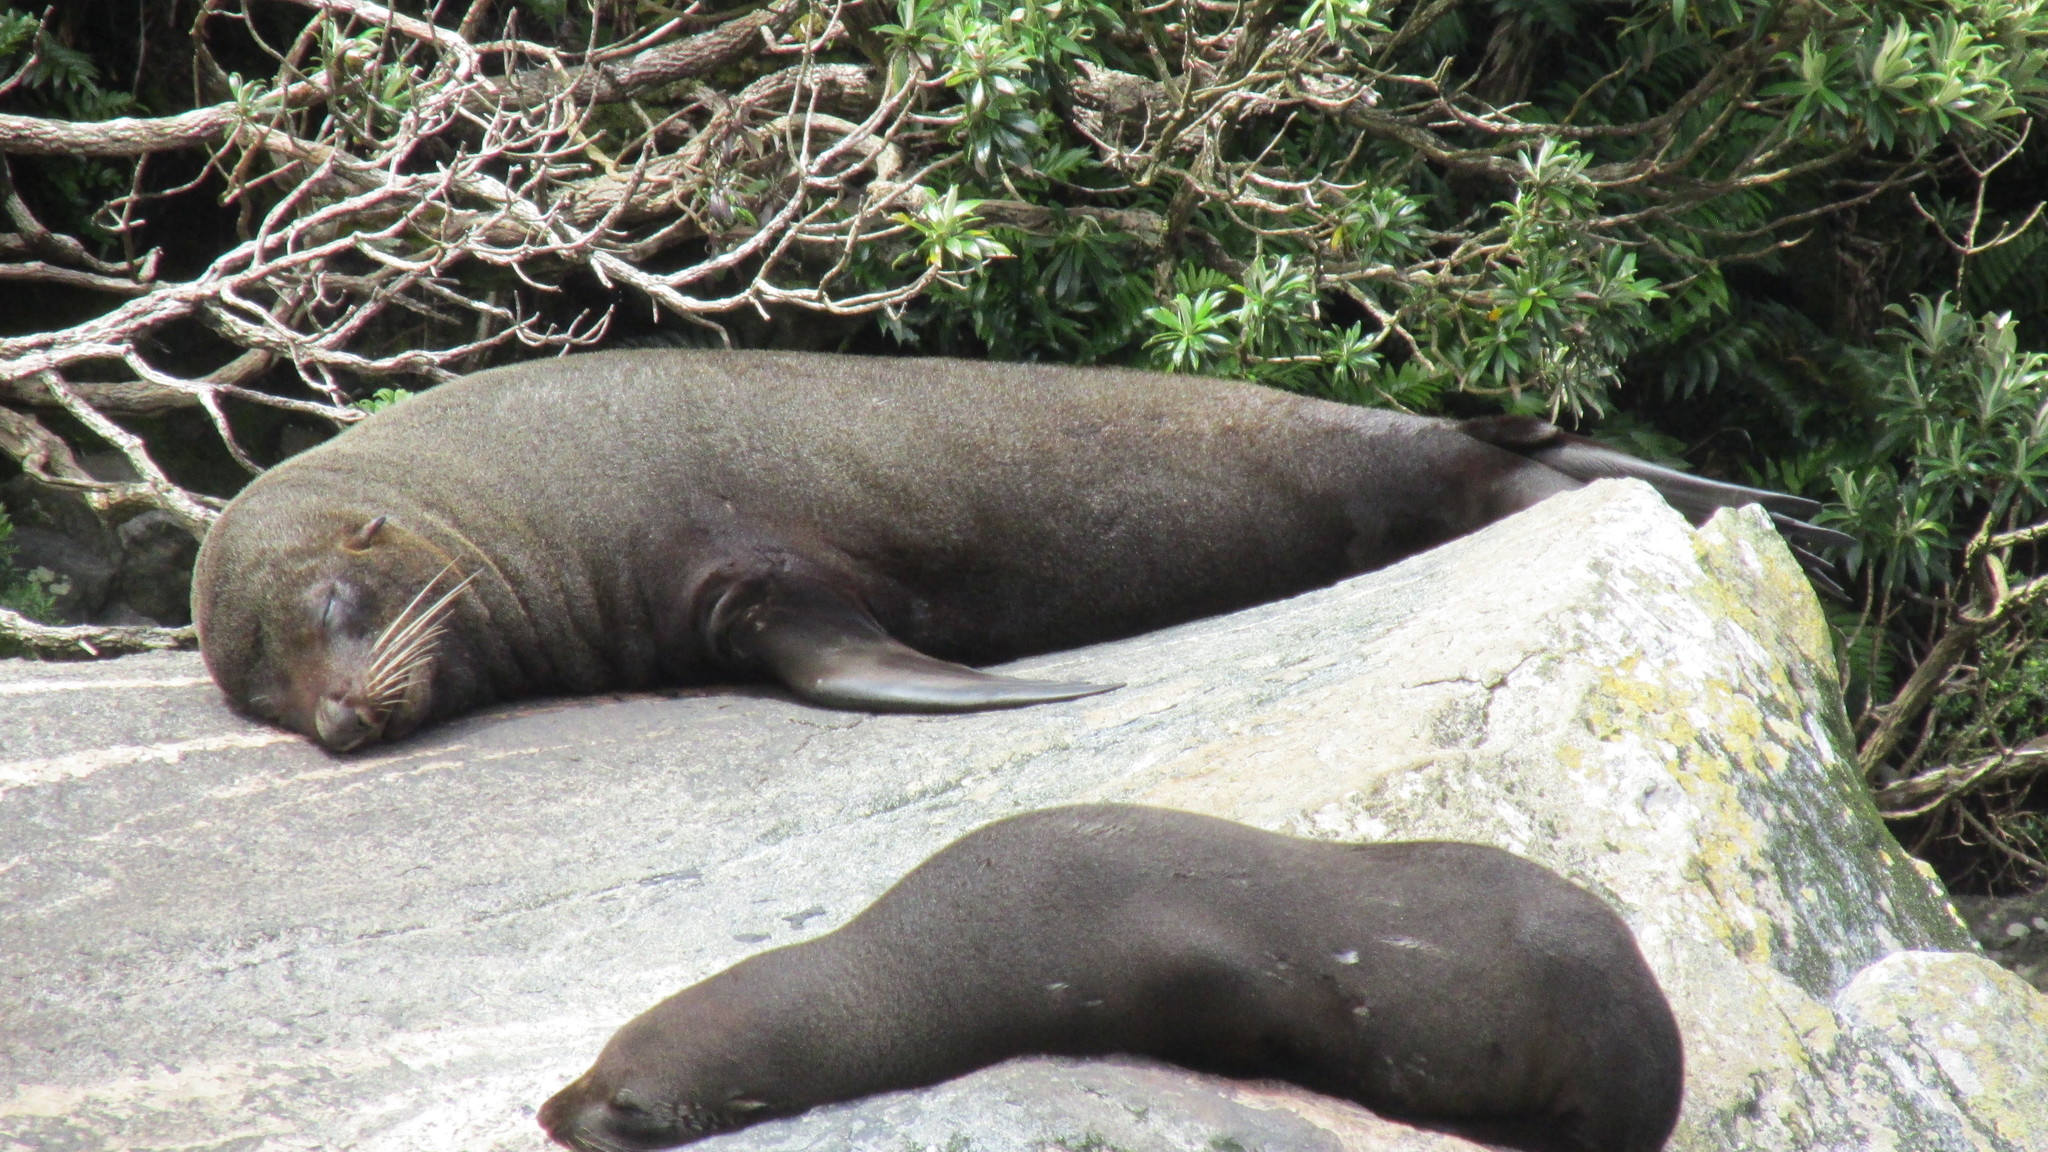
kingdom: Animalia
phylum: Chordata
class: Mammalia
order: Carnivora
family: Otariidae
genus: Arctocephalus
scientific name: Arctocephalus forsteri
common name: New zealand fur seal
